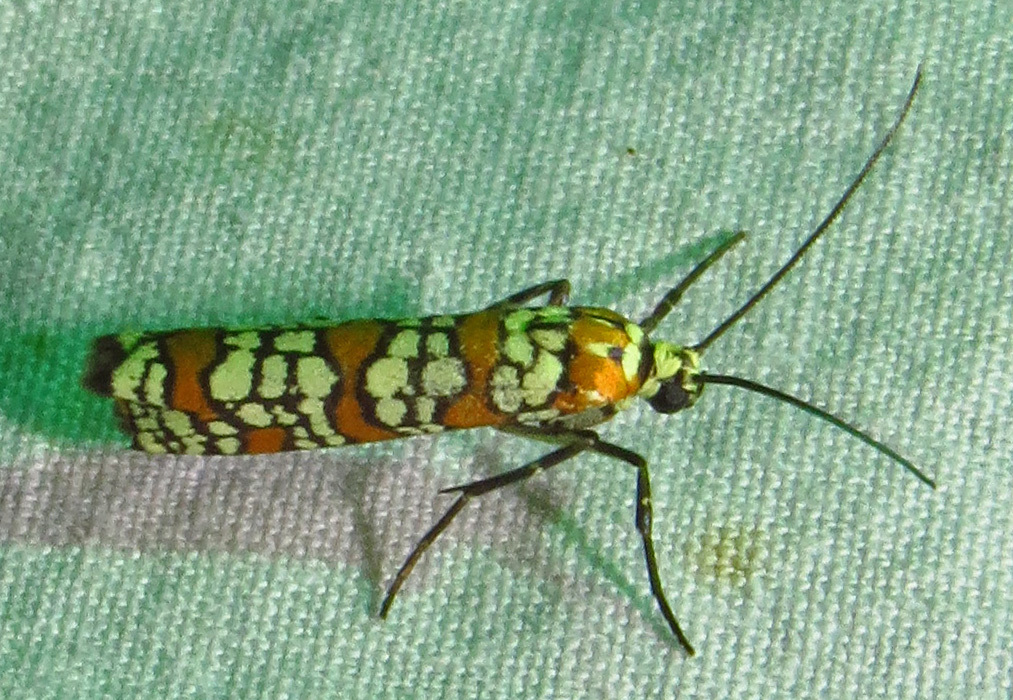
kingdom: Animalia
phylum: Arthropoda
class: Insecta
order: Lepidoptera
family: Attevidae
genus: Atteva
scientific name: Atteva punctella
